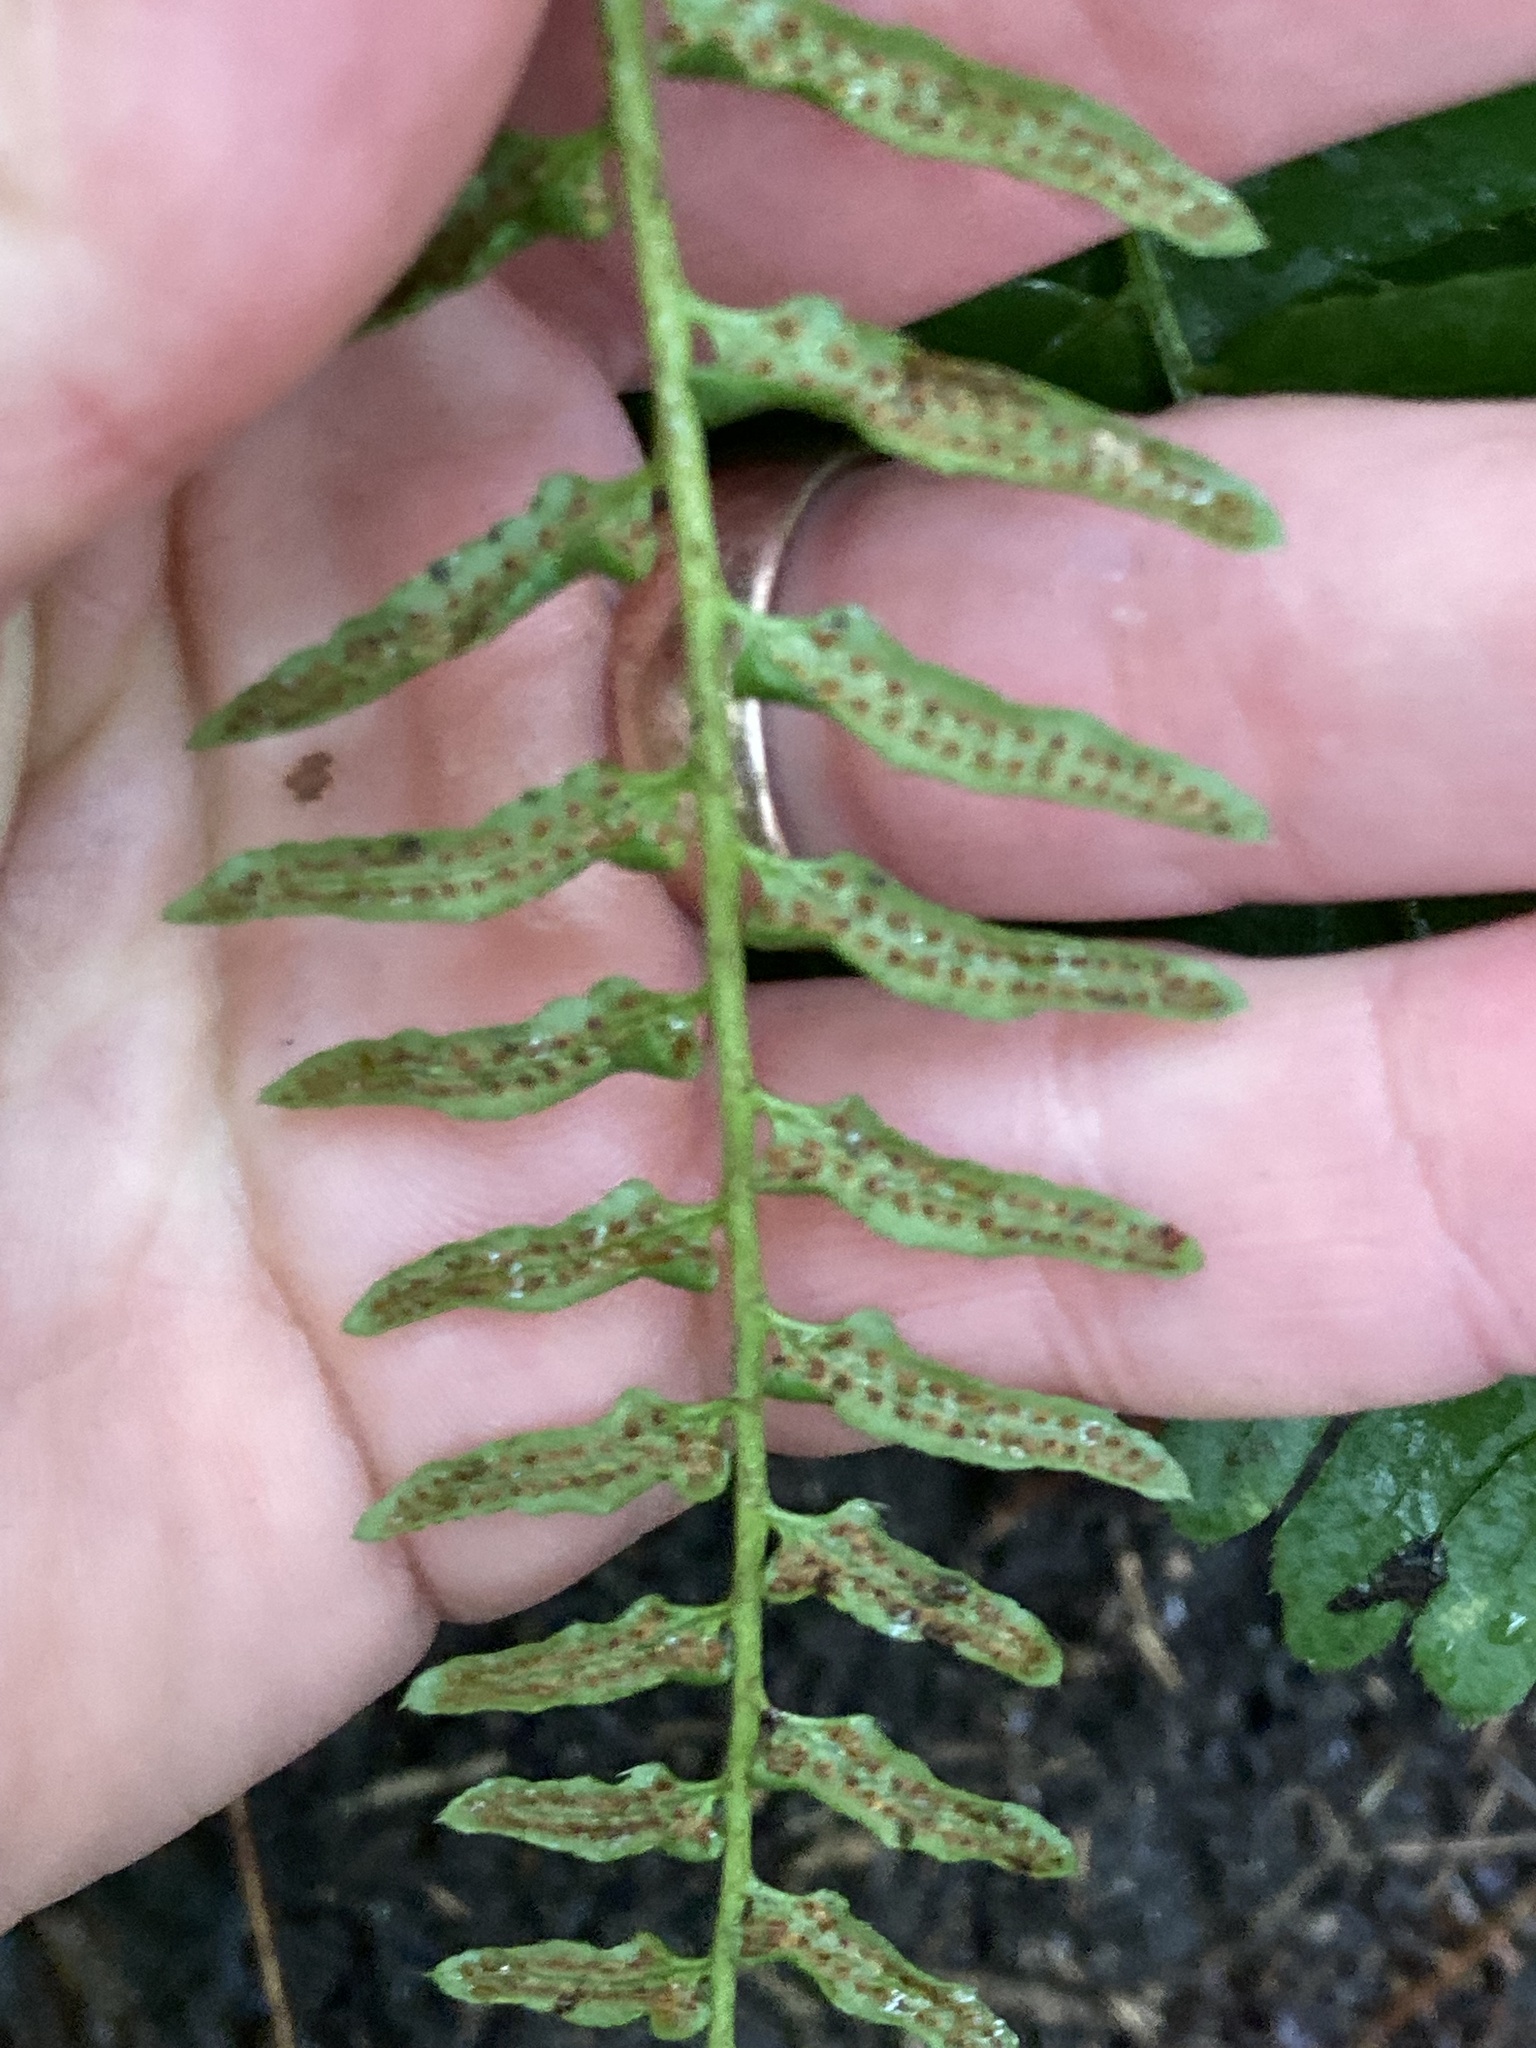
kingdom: Plantae
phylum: Tracheophyta
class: Polypodiopsida
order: Polypodiales
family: Dryopteridaceae
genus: Polystichum
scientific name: Polystichum acrostichoides
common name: Christmas fern
